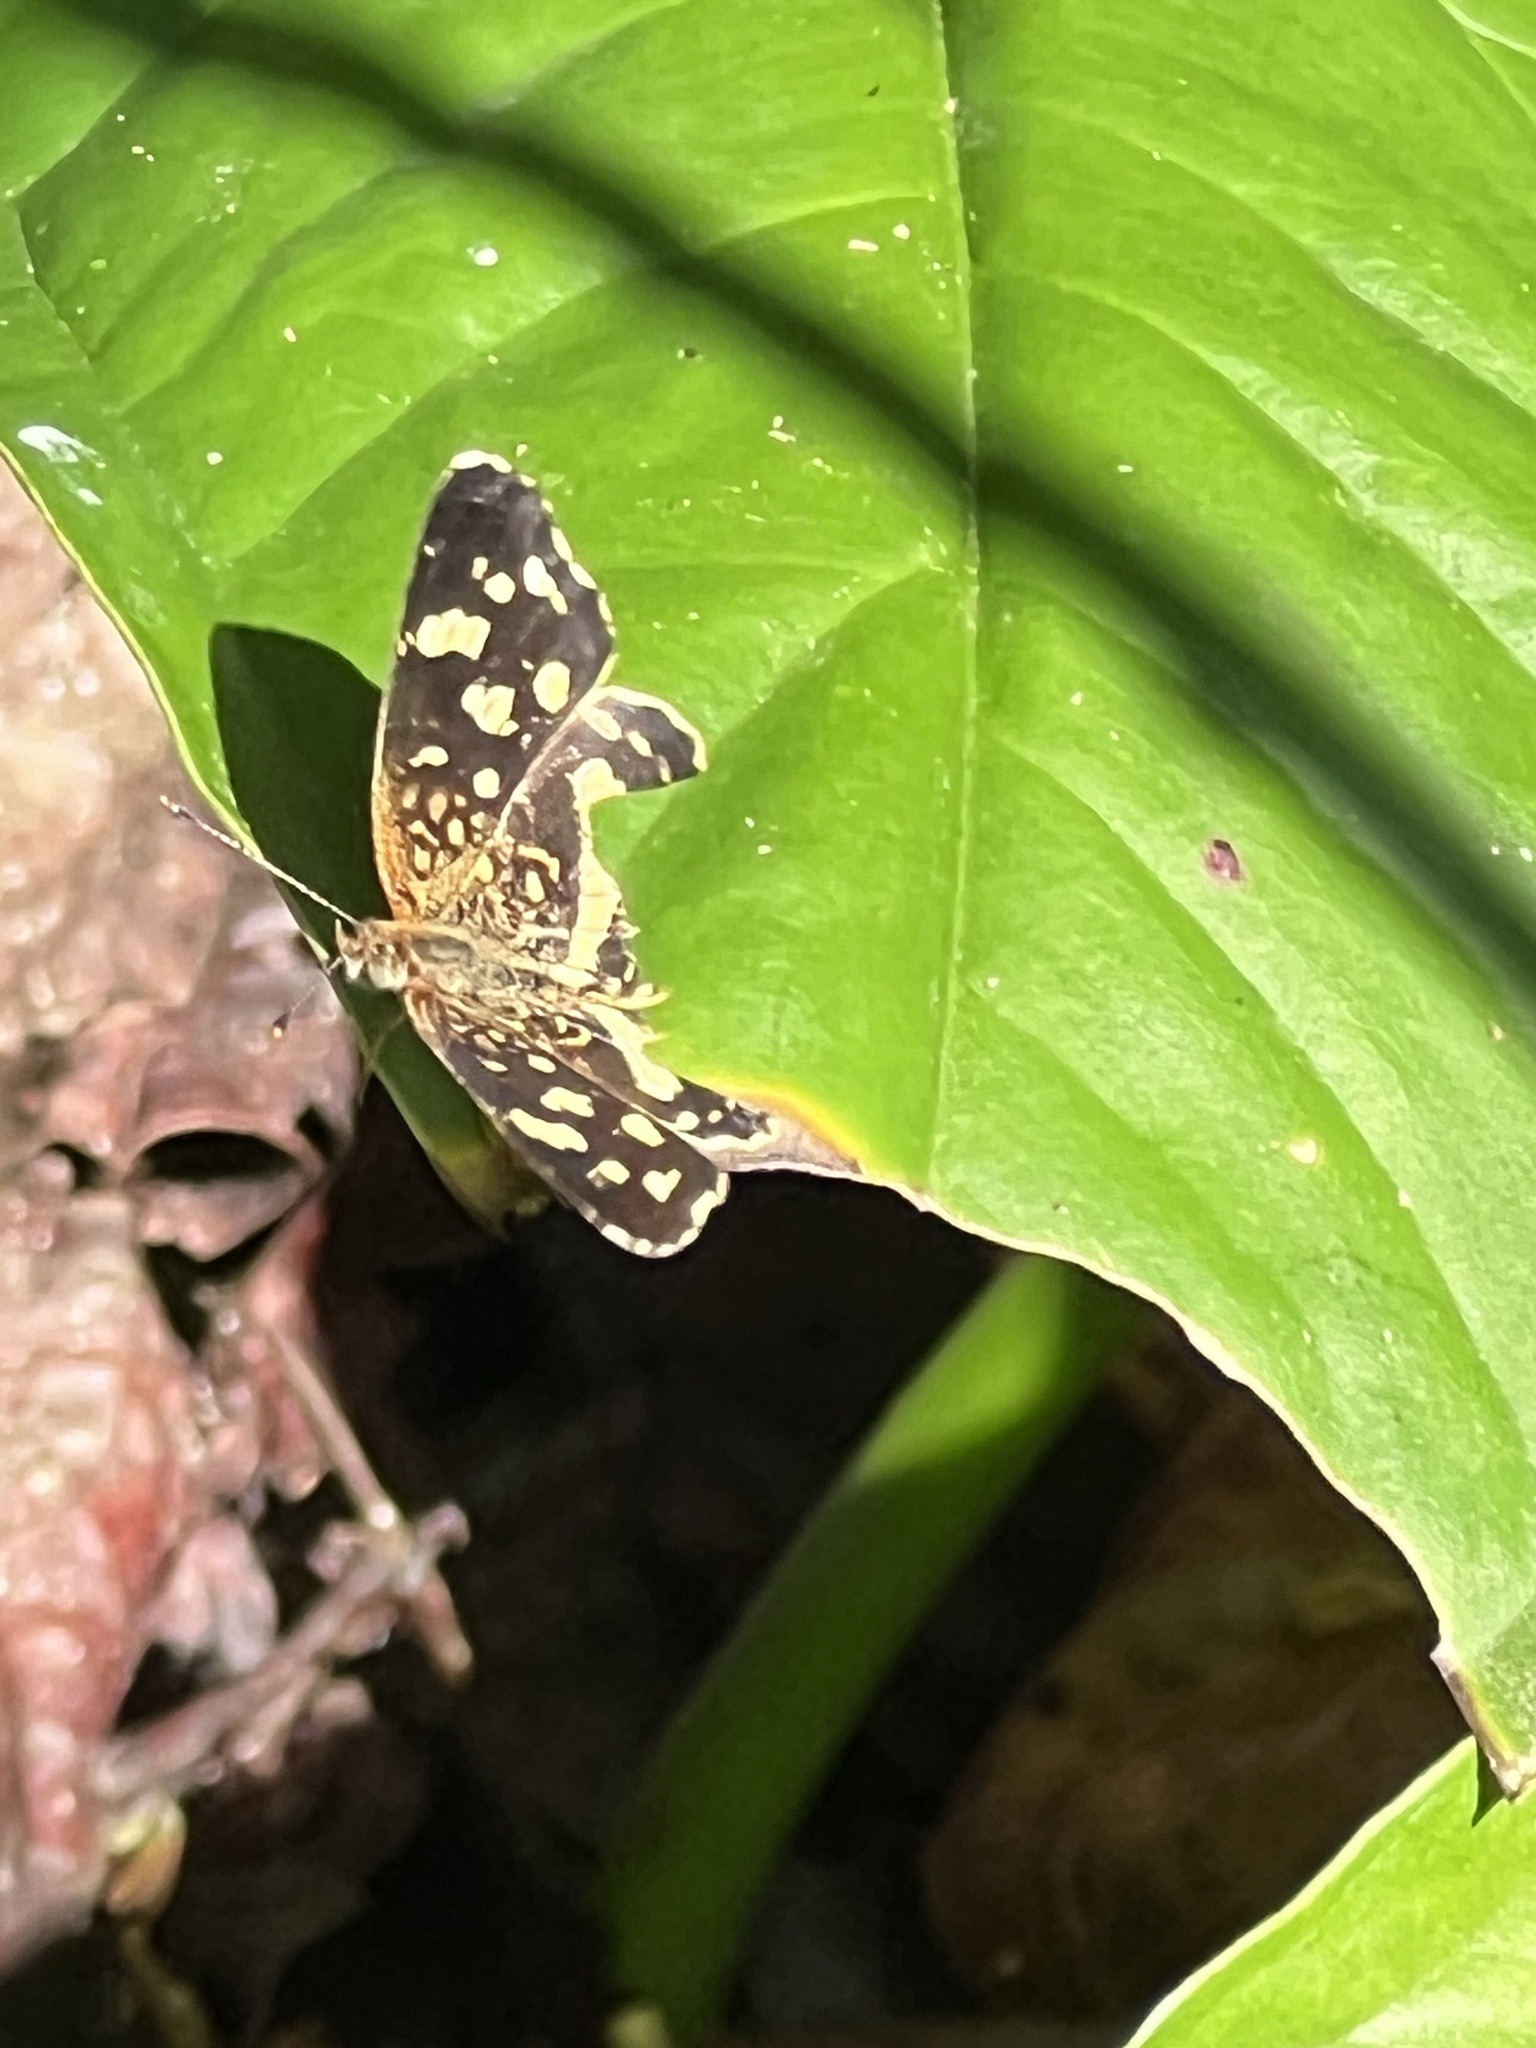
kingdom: Animalia
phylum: Arthropoda
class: Insecta
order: Lepidoptera
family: Nymphalidae
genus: Anthanassa
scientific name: Anthanassa tulcis
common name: Pale-banded crescent
